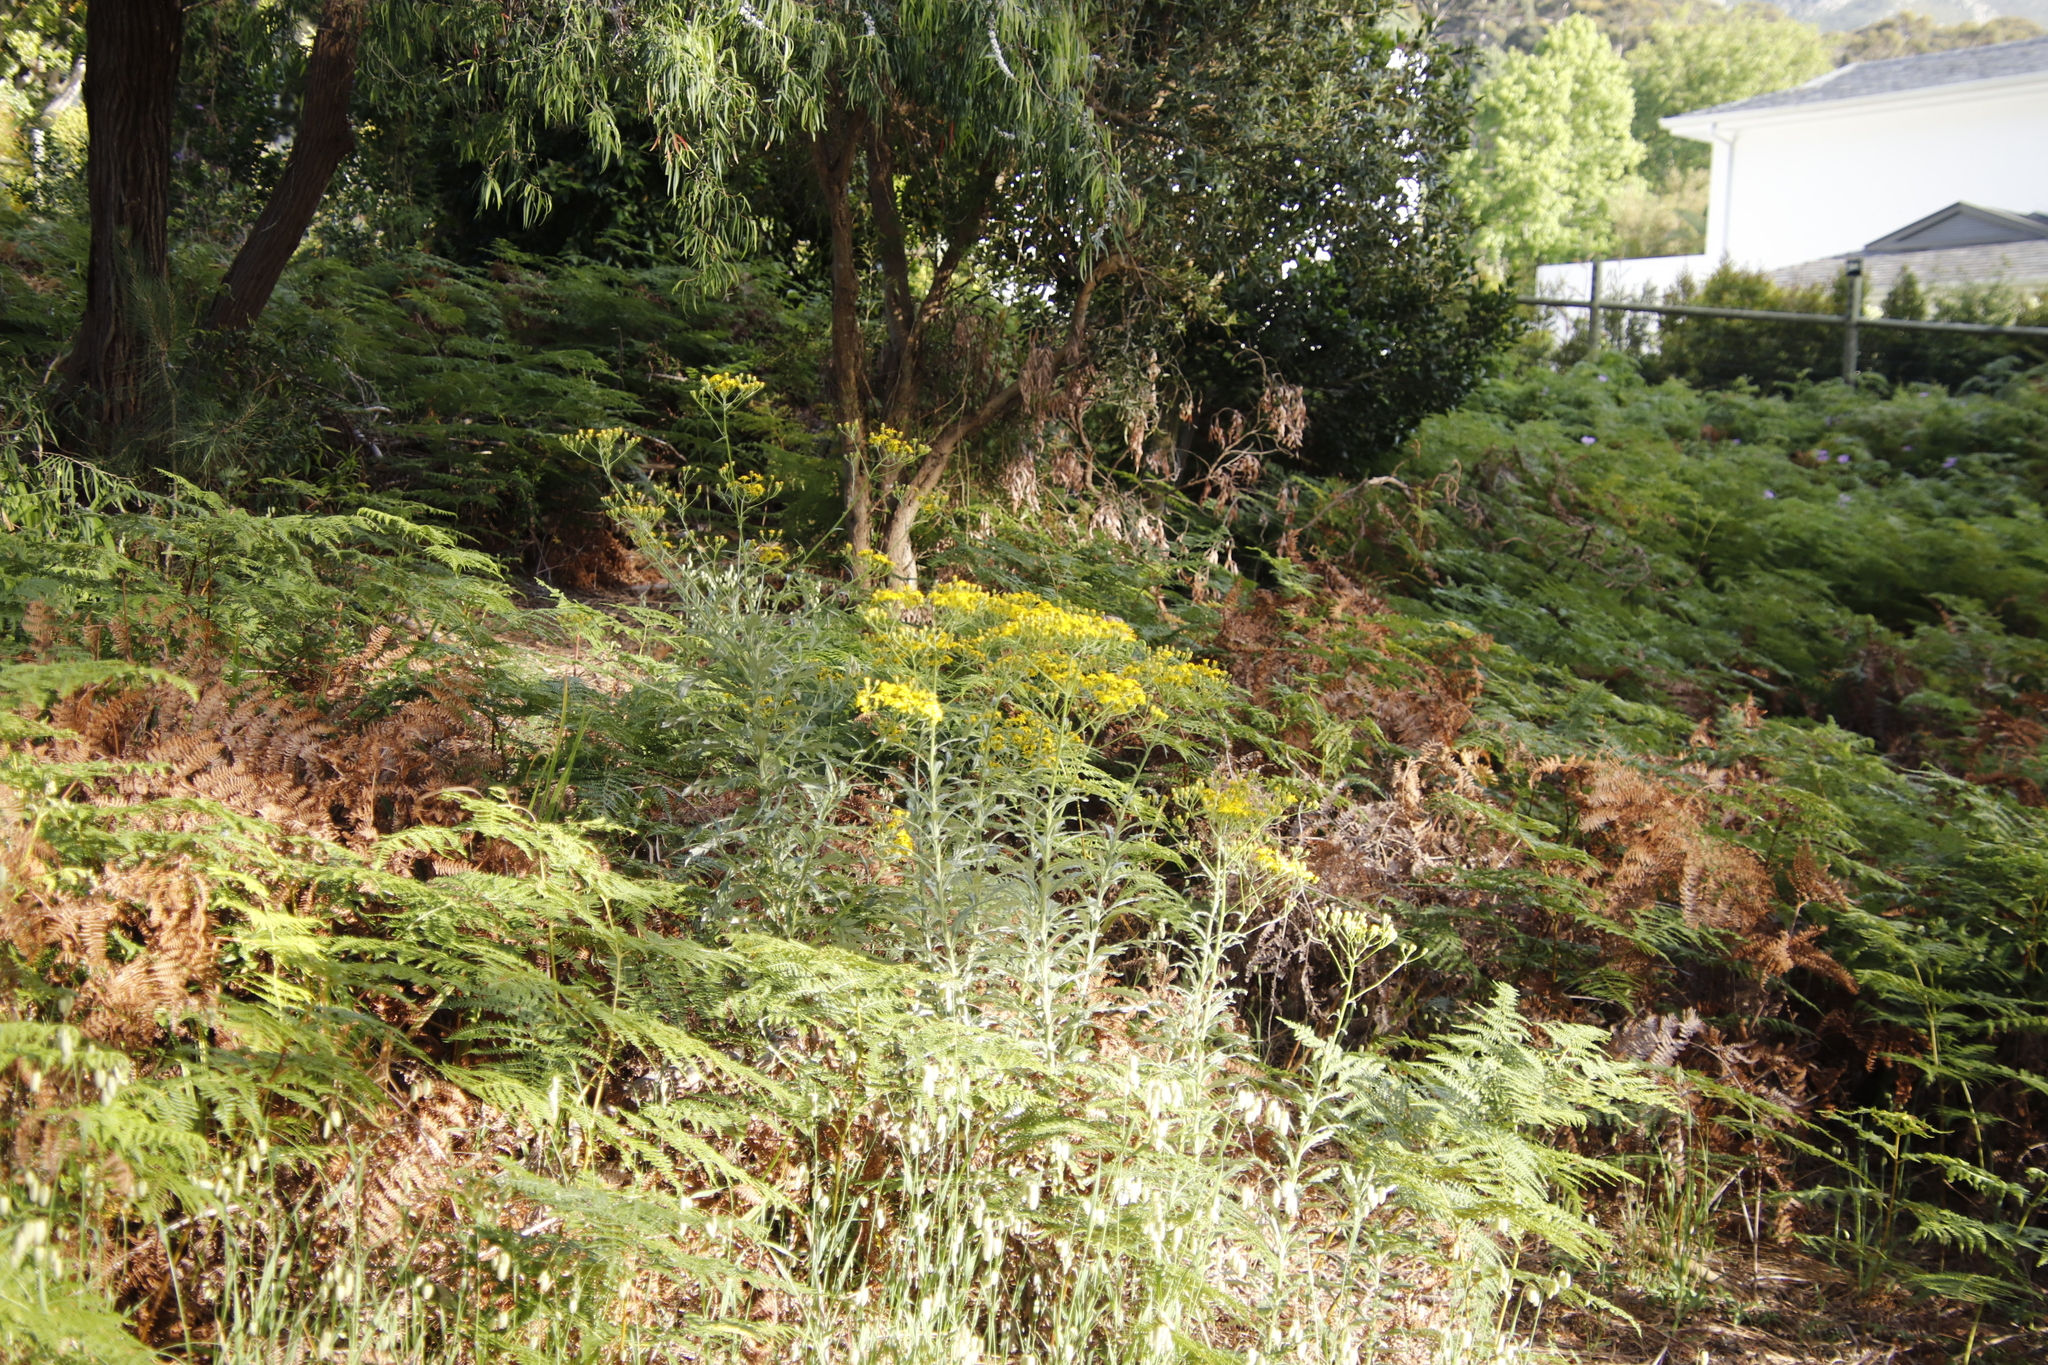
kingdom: Plantae
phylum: Tracheophyta
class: Magnoliopsida
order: Asterales
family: Asteraceae
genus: Senecio
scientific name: Senecio pterophorus
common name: Shoddy ragwort
